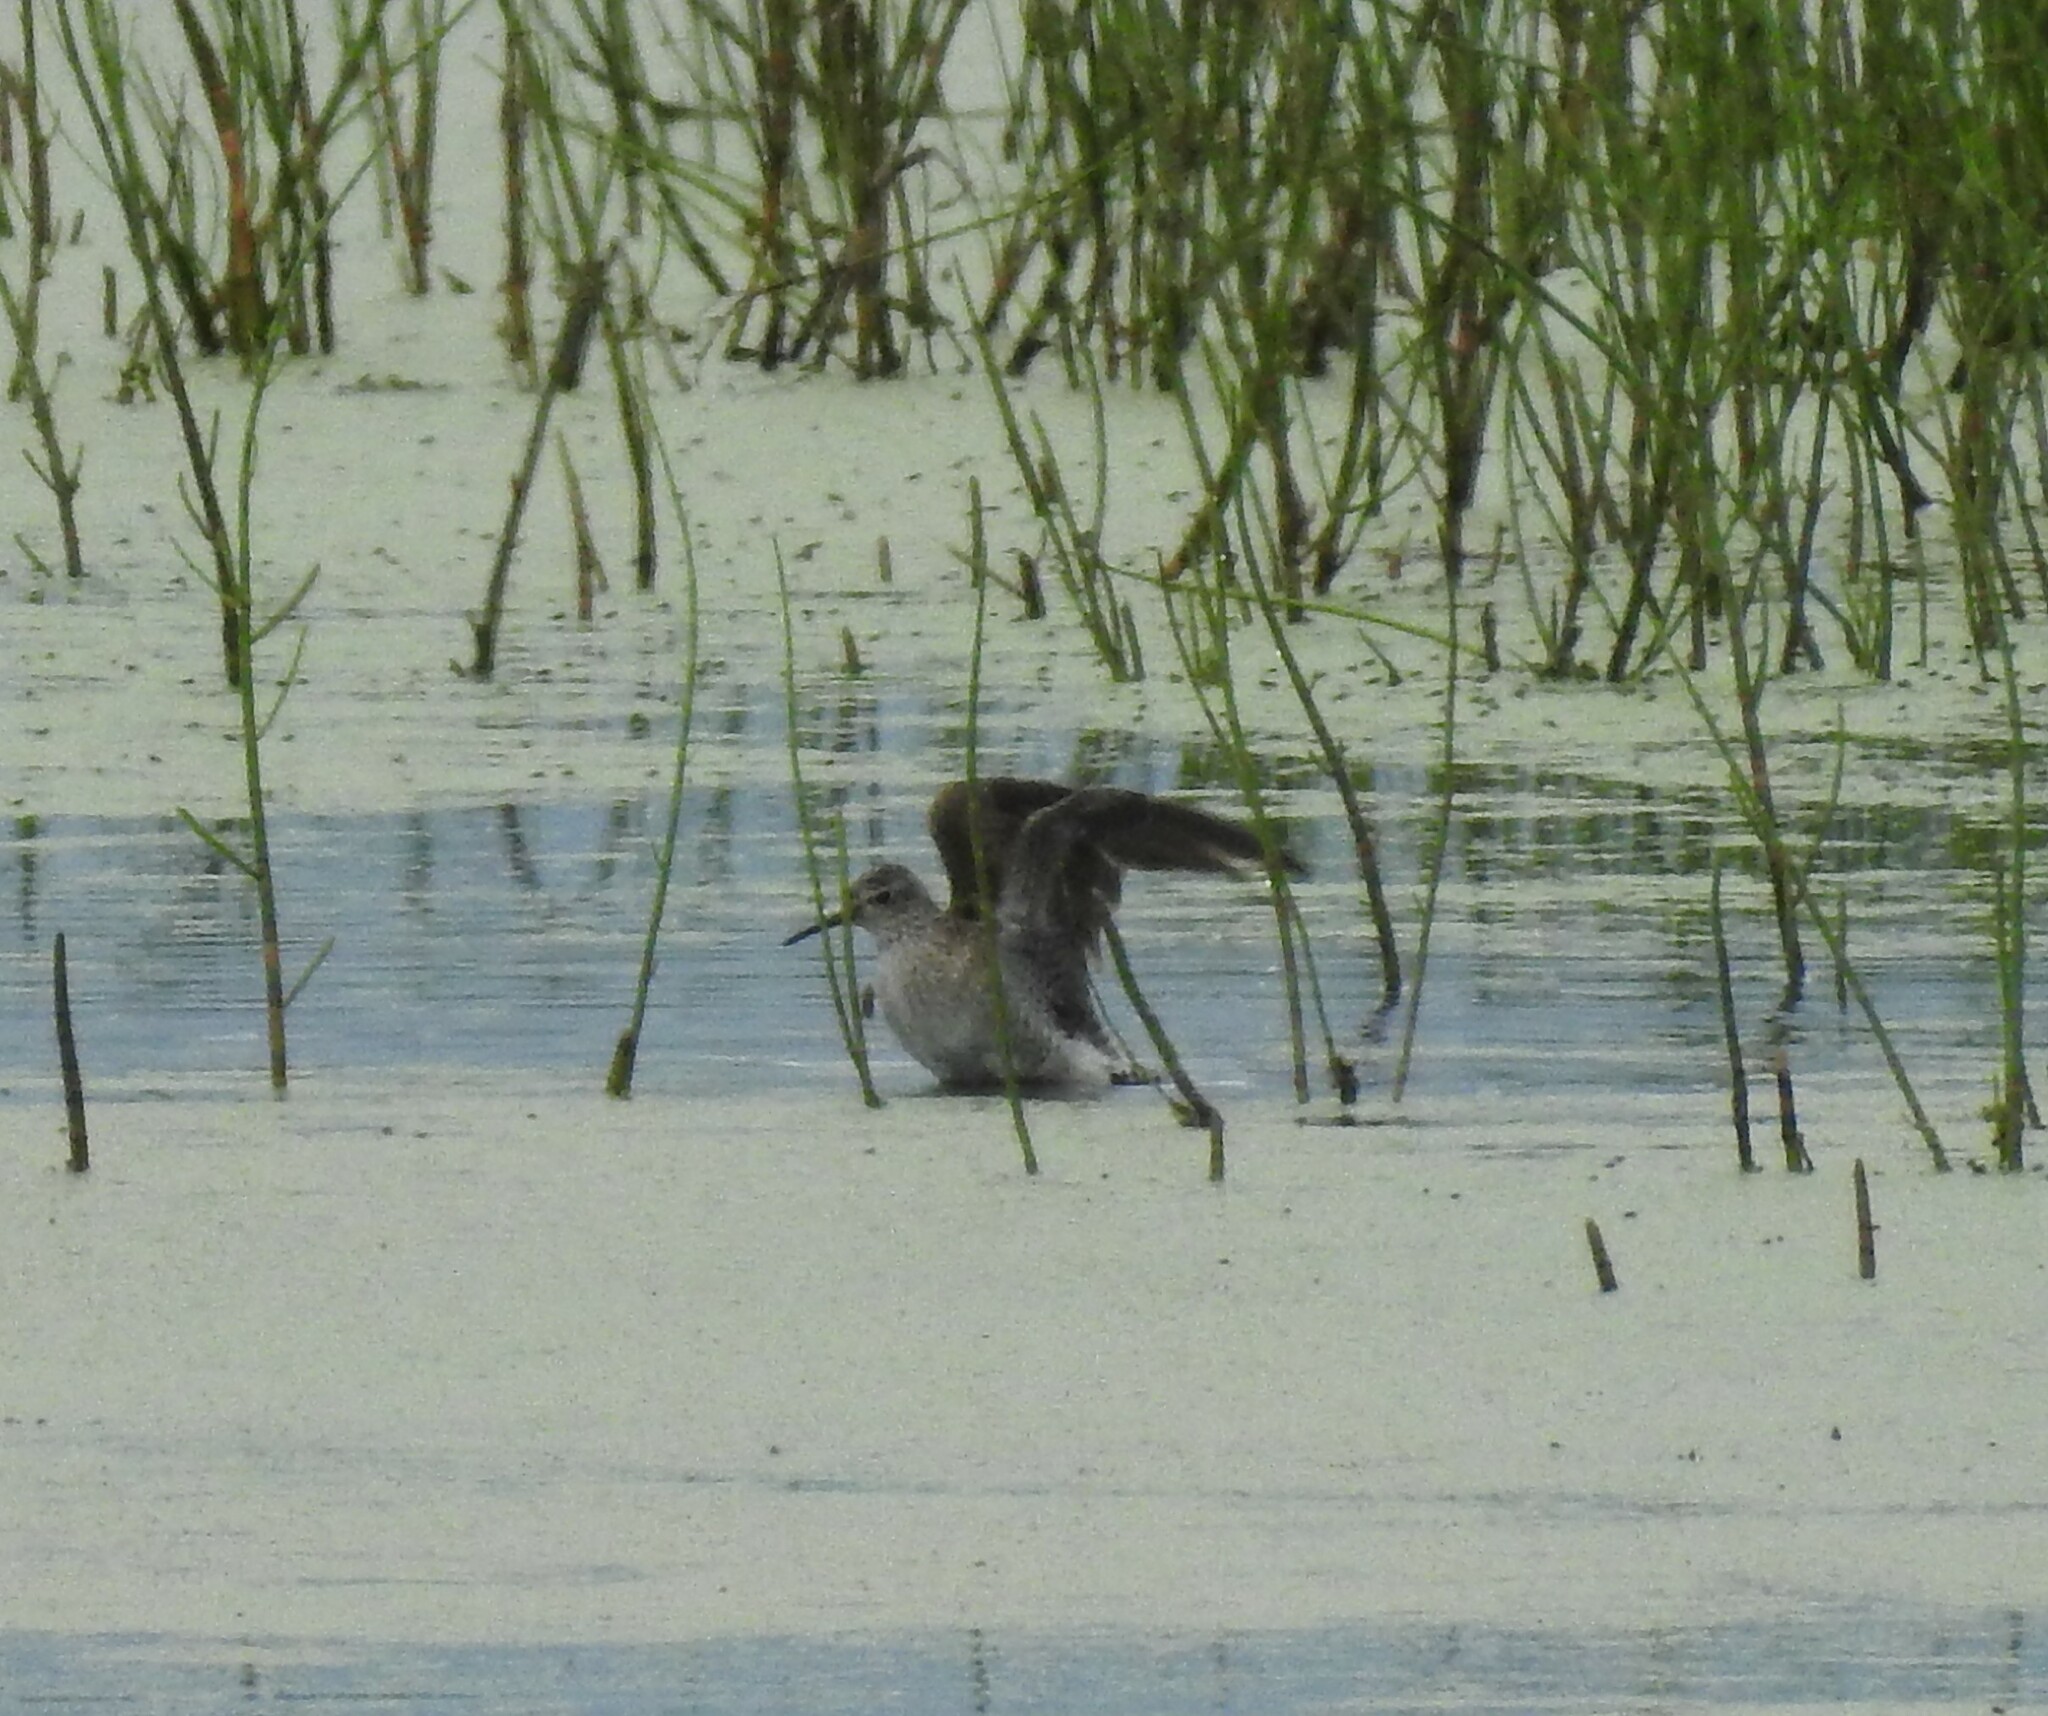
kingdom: Animalia
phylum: Chordata
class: Aves
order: Charadriiformes
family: Scolopacidae
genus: Tringa
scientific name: Tringa glareola
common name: Wood sandpiper
